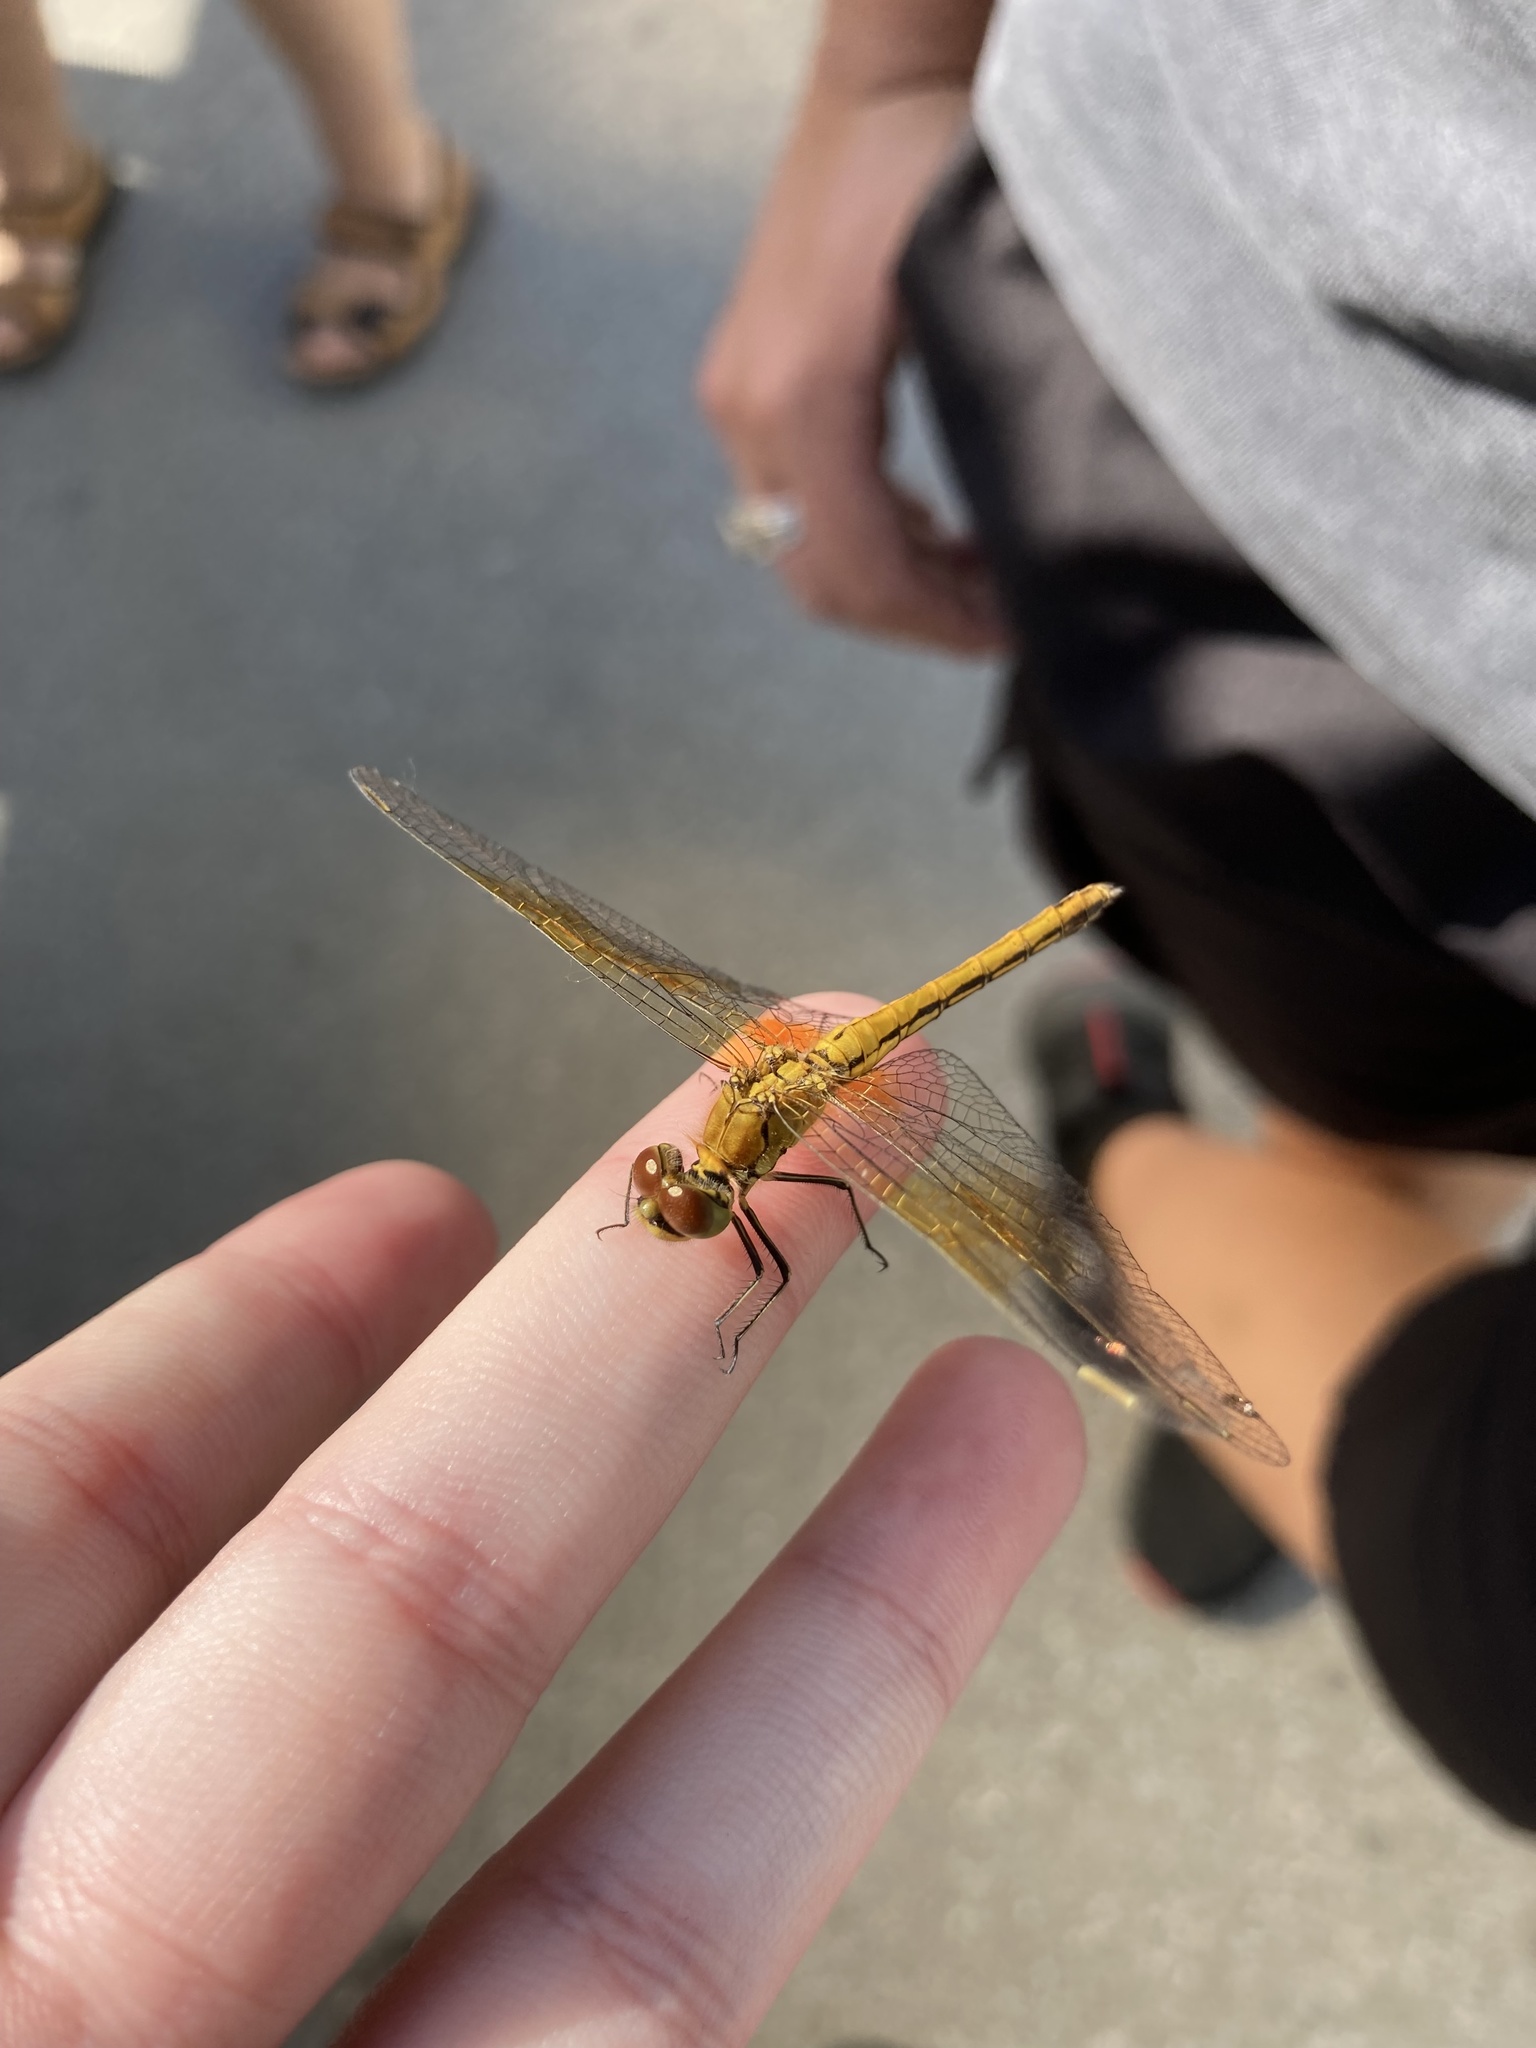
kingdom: Animalia
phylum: Arthropoda
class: Insecta
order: Odonata
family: Libellulidae
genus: Sympetrum
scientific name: Sympetrum flaveolum
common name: Yellow-winged darter
